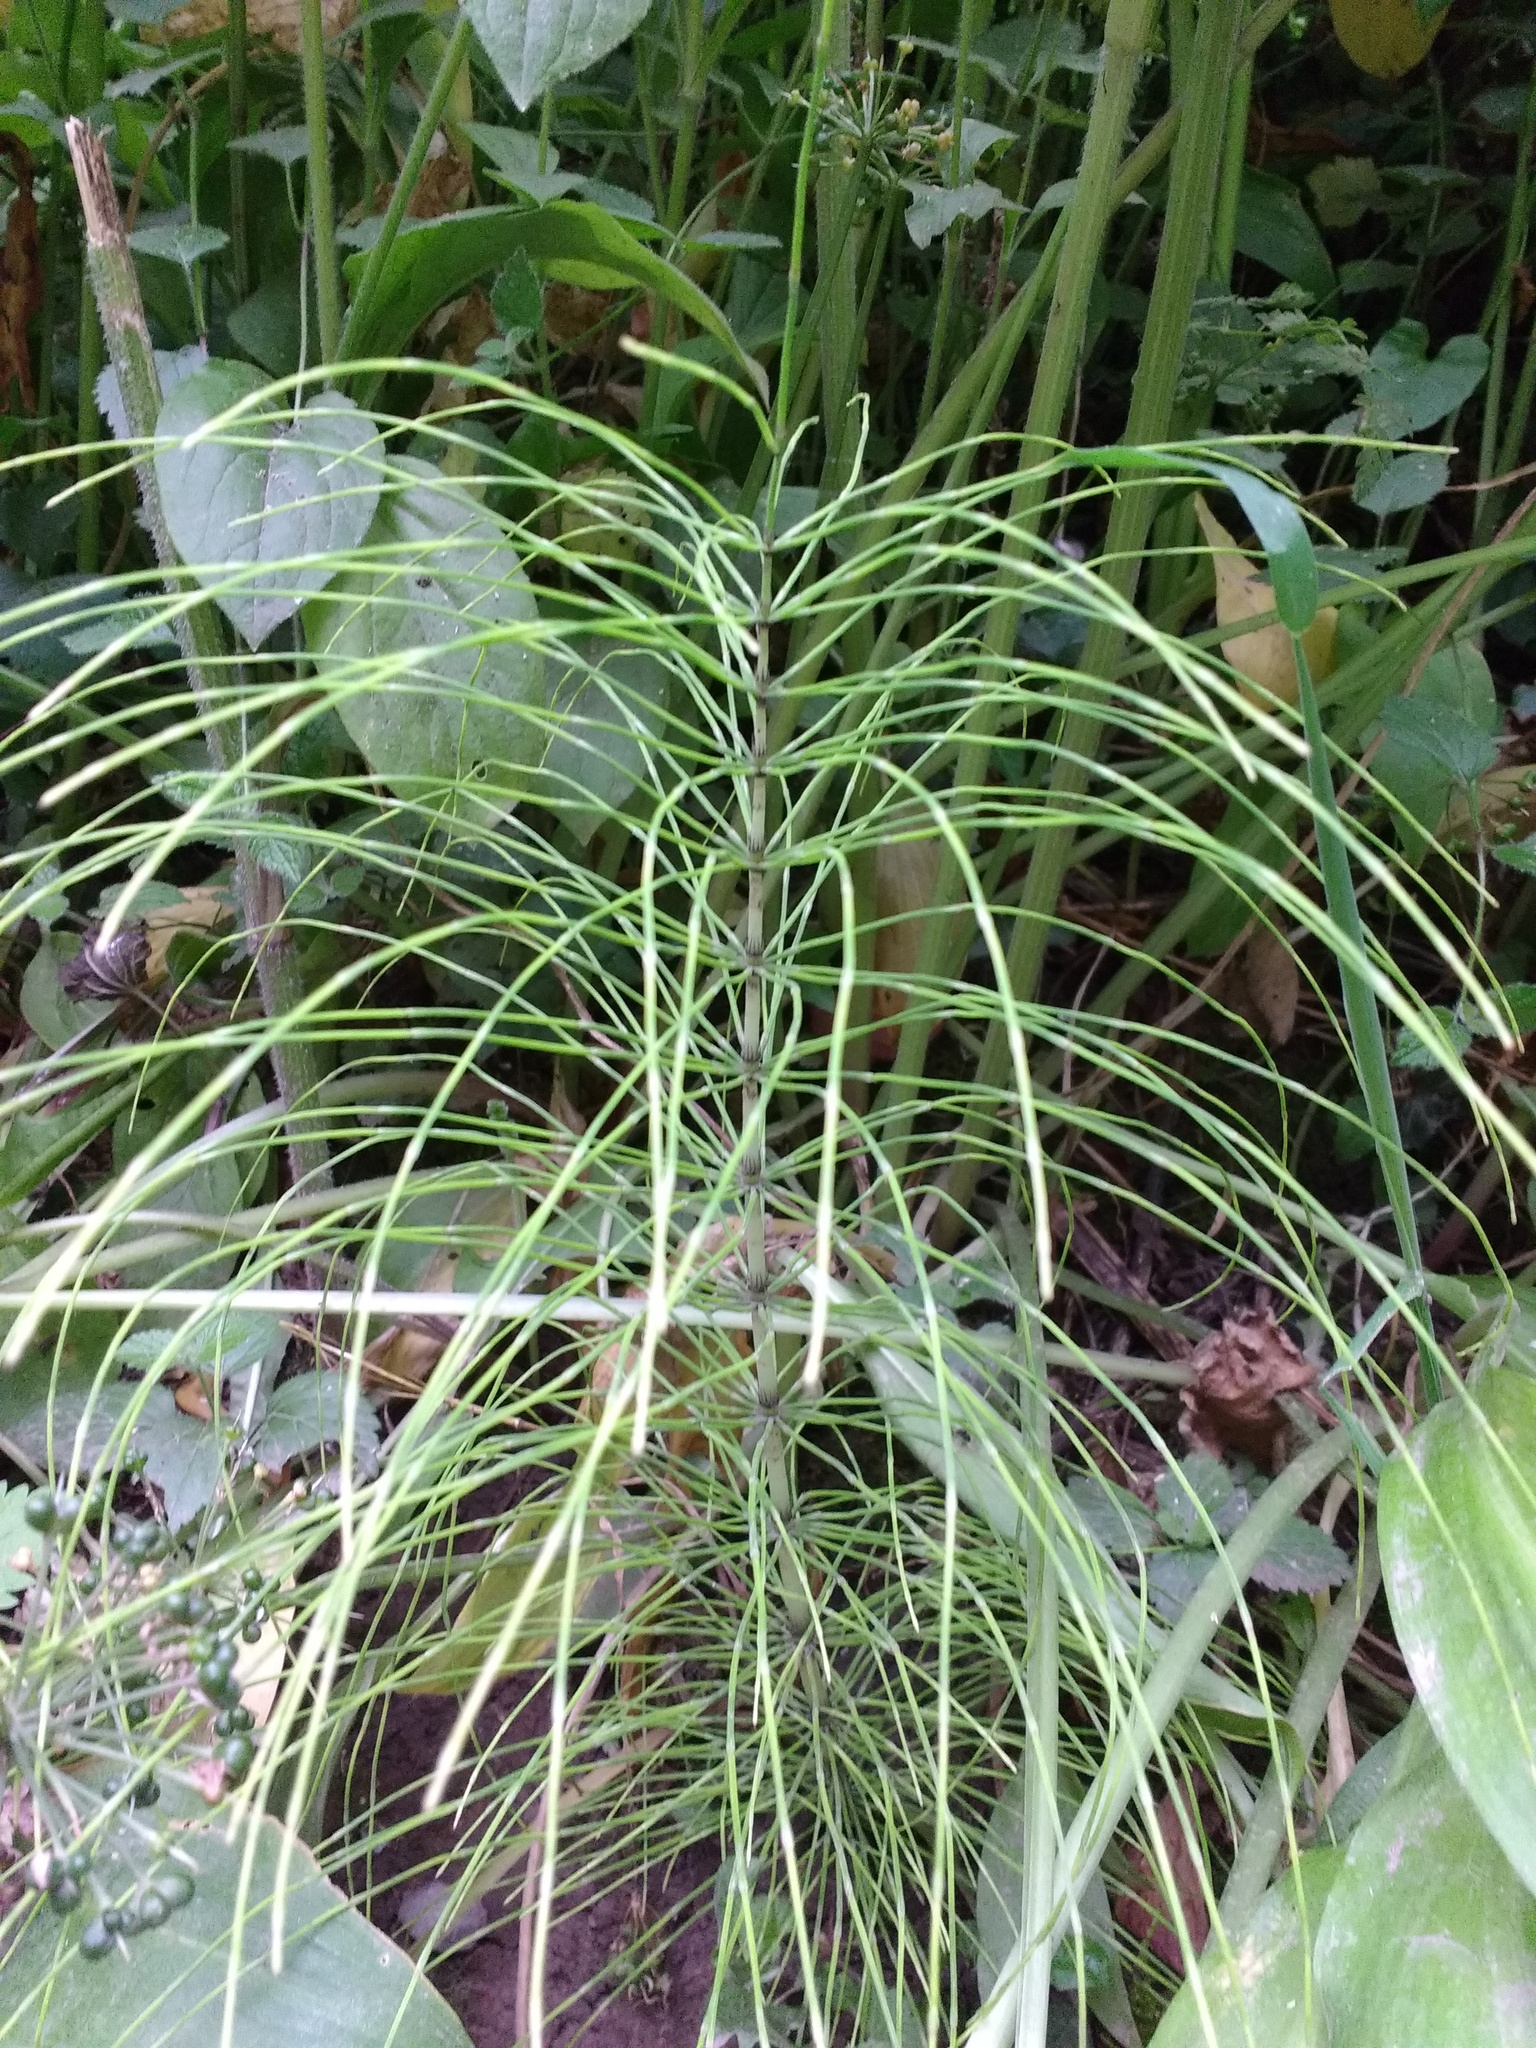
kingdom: Plantae
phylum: Tracheophyta
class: Polypodiopsida
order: Equisetales
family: Equisetaceae
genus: Equisetum
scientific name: Equisetum telmateia
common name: Great horsetail
